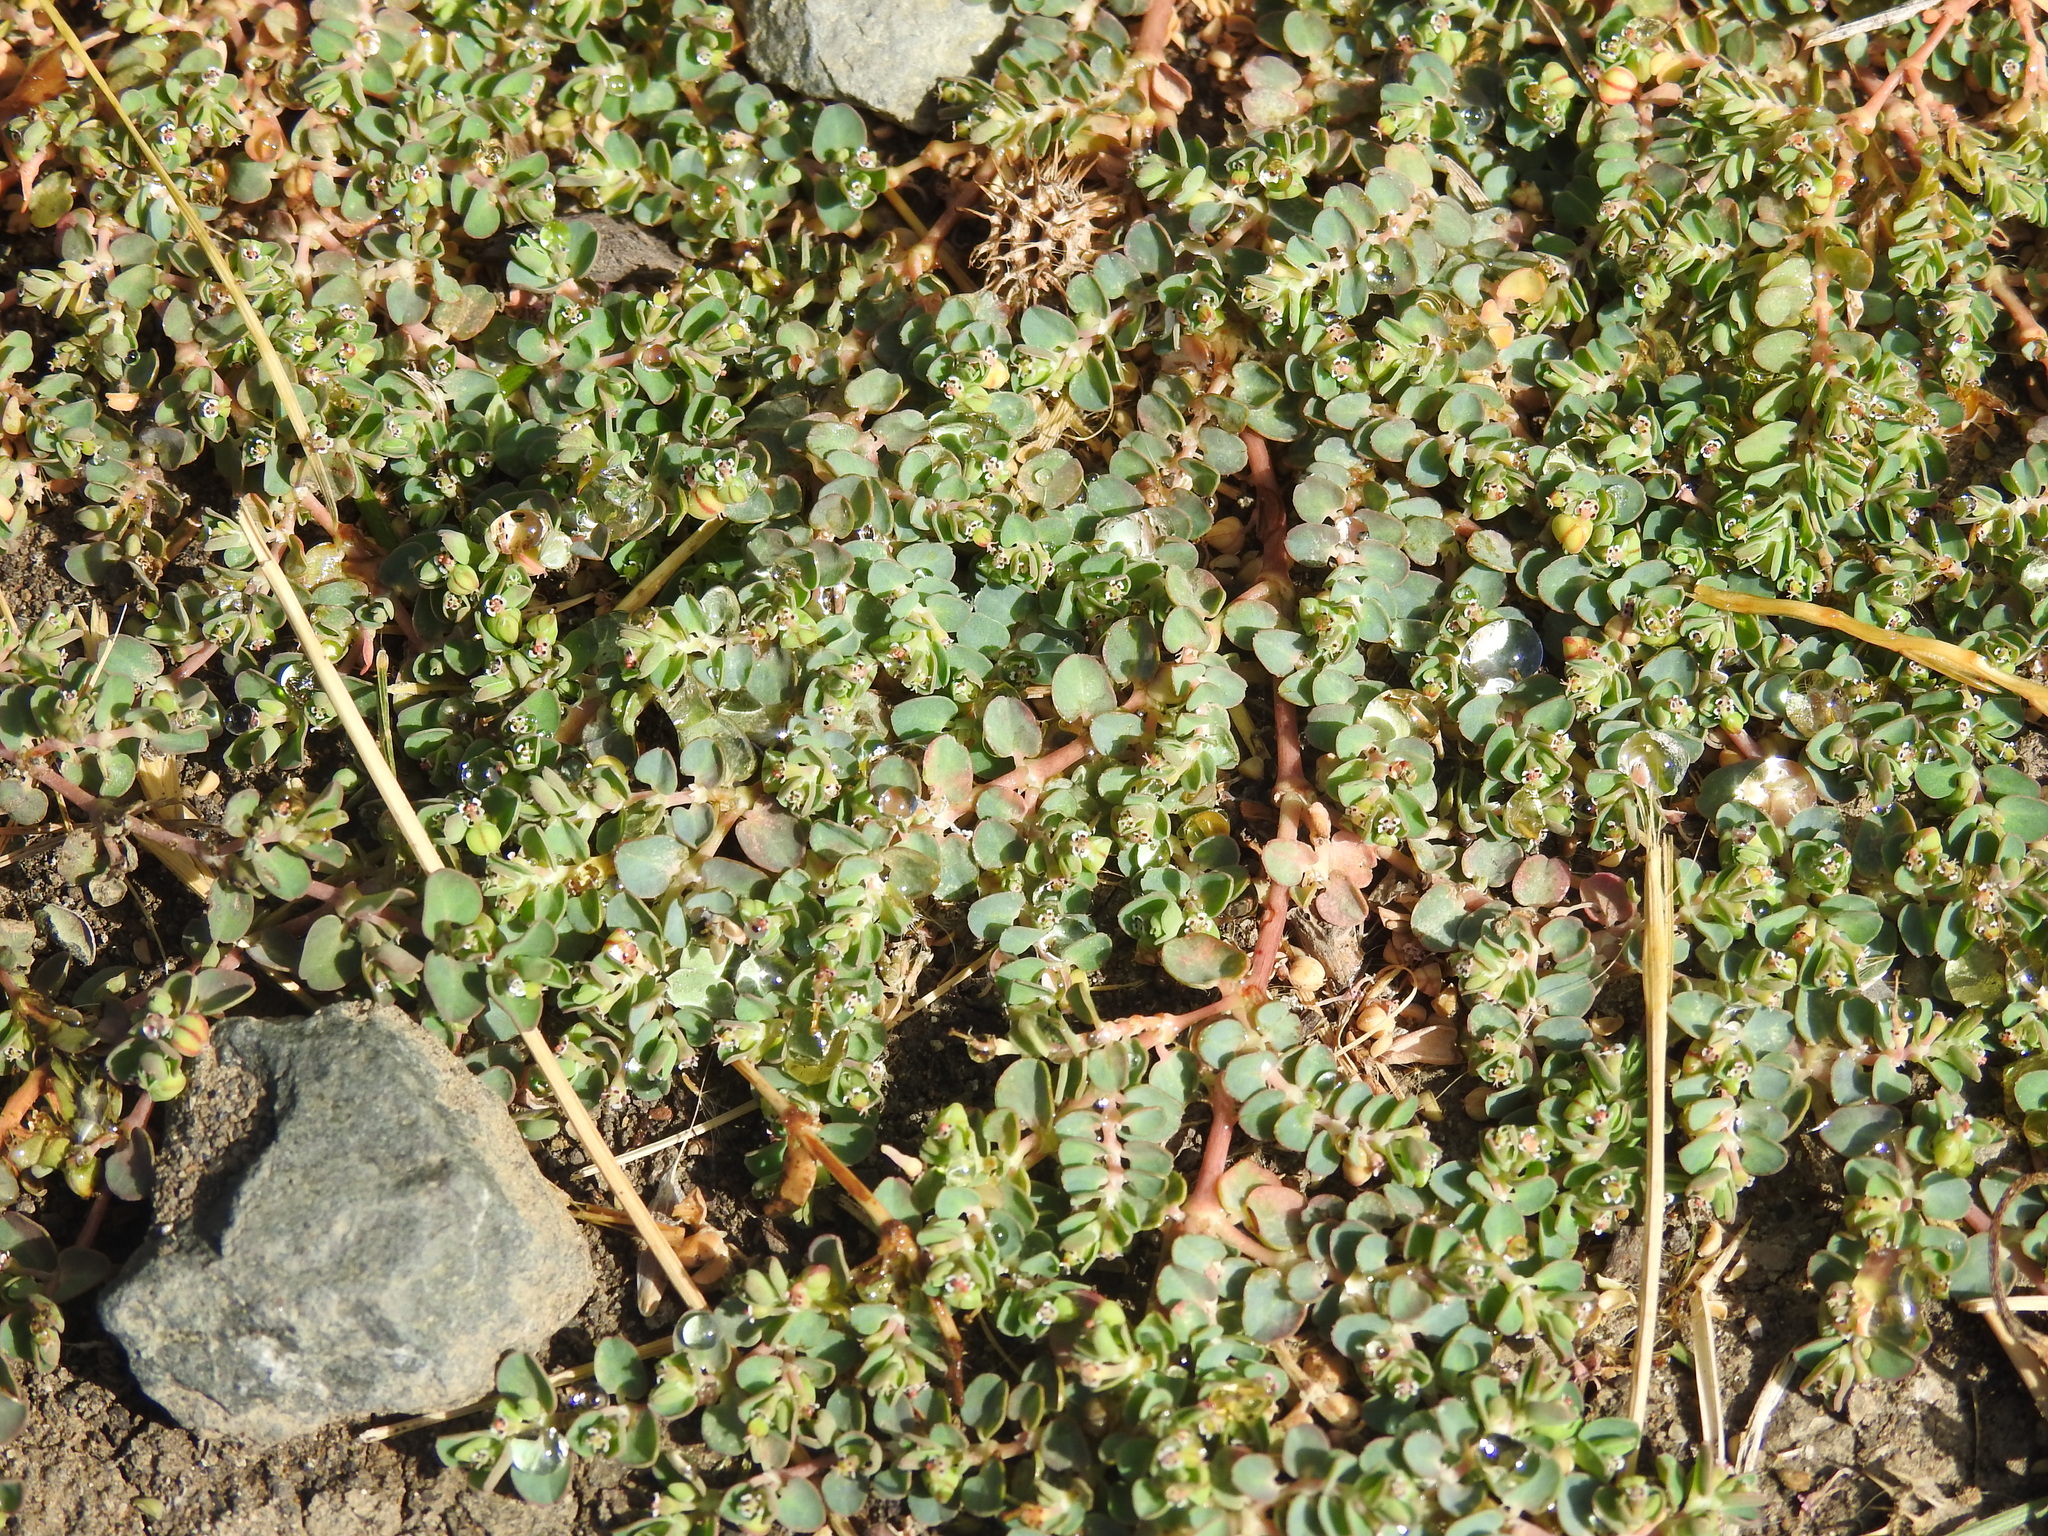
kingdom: Plantae
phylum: Tracheophyta
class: Magnoliopsida
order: Malpighiales
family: Euphorbiaceae
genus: Euphorbia
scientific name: Euphorbia serpens
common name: Matted sandmat
